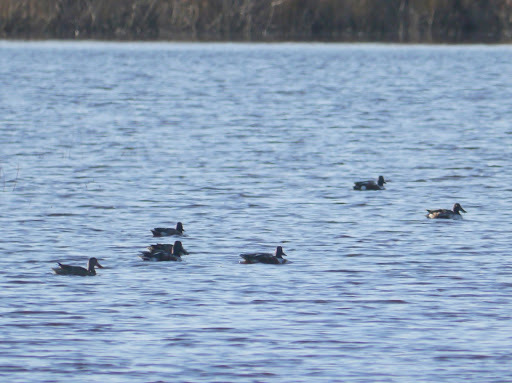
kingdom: Animalia
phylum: Chordata
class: Aves
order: Anseriformes
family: Anatidae
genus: Spatula
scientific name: Spatula clypeata
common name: Northern shoveler
